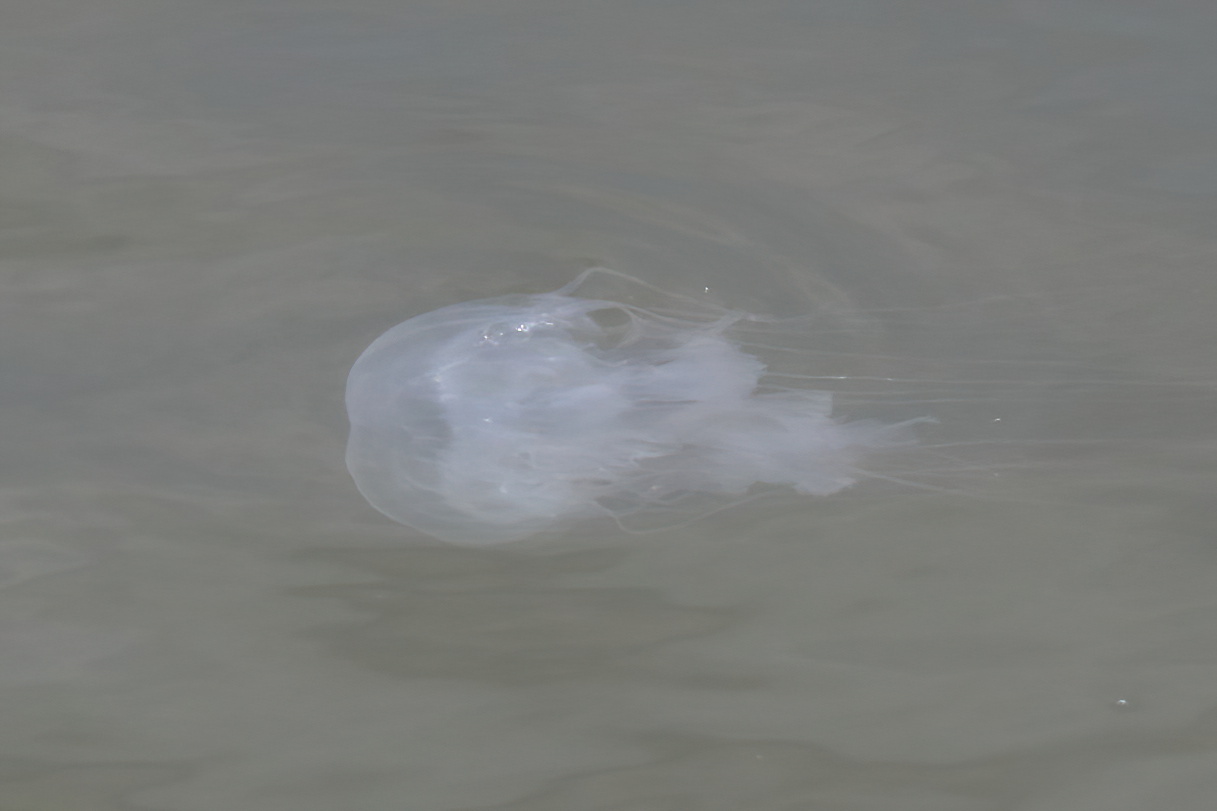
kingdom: Animalia
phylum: Cnidaria
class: Scyphozoa
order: Semaeostomeae
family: Pelagiidae
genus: Chrysaora
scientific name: Chrysaora chesapeakei
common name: Bay nettle
